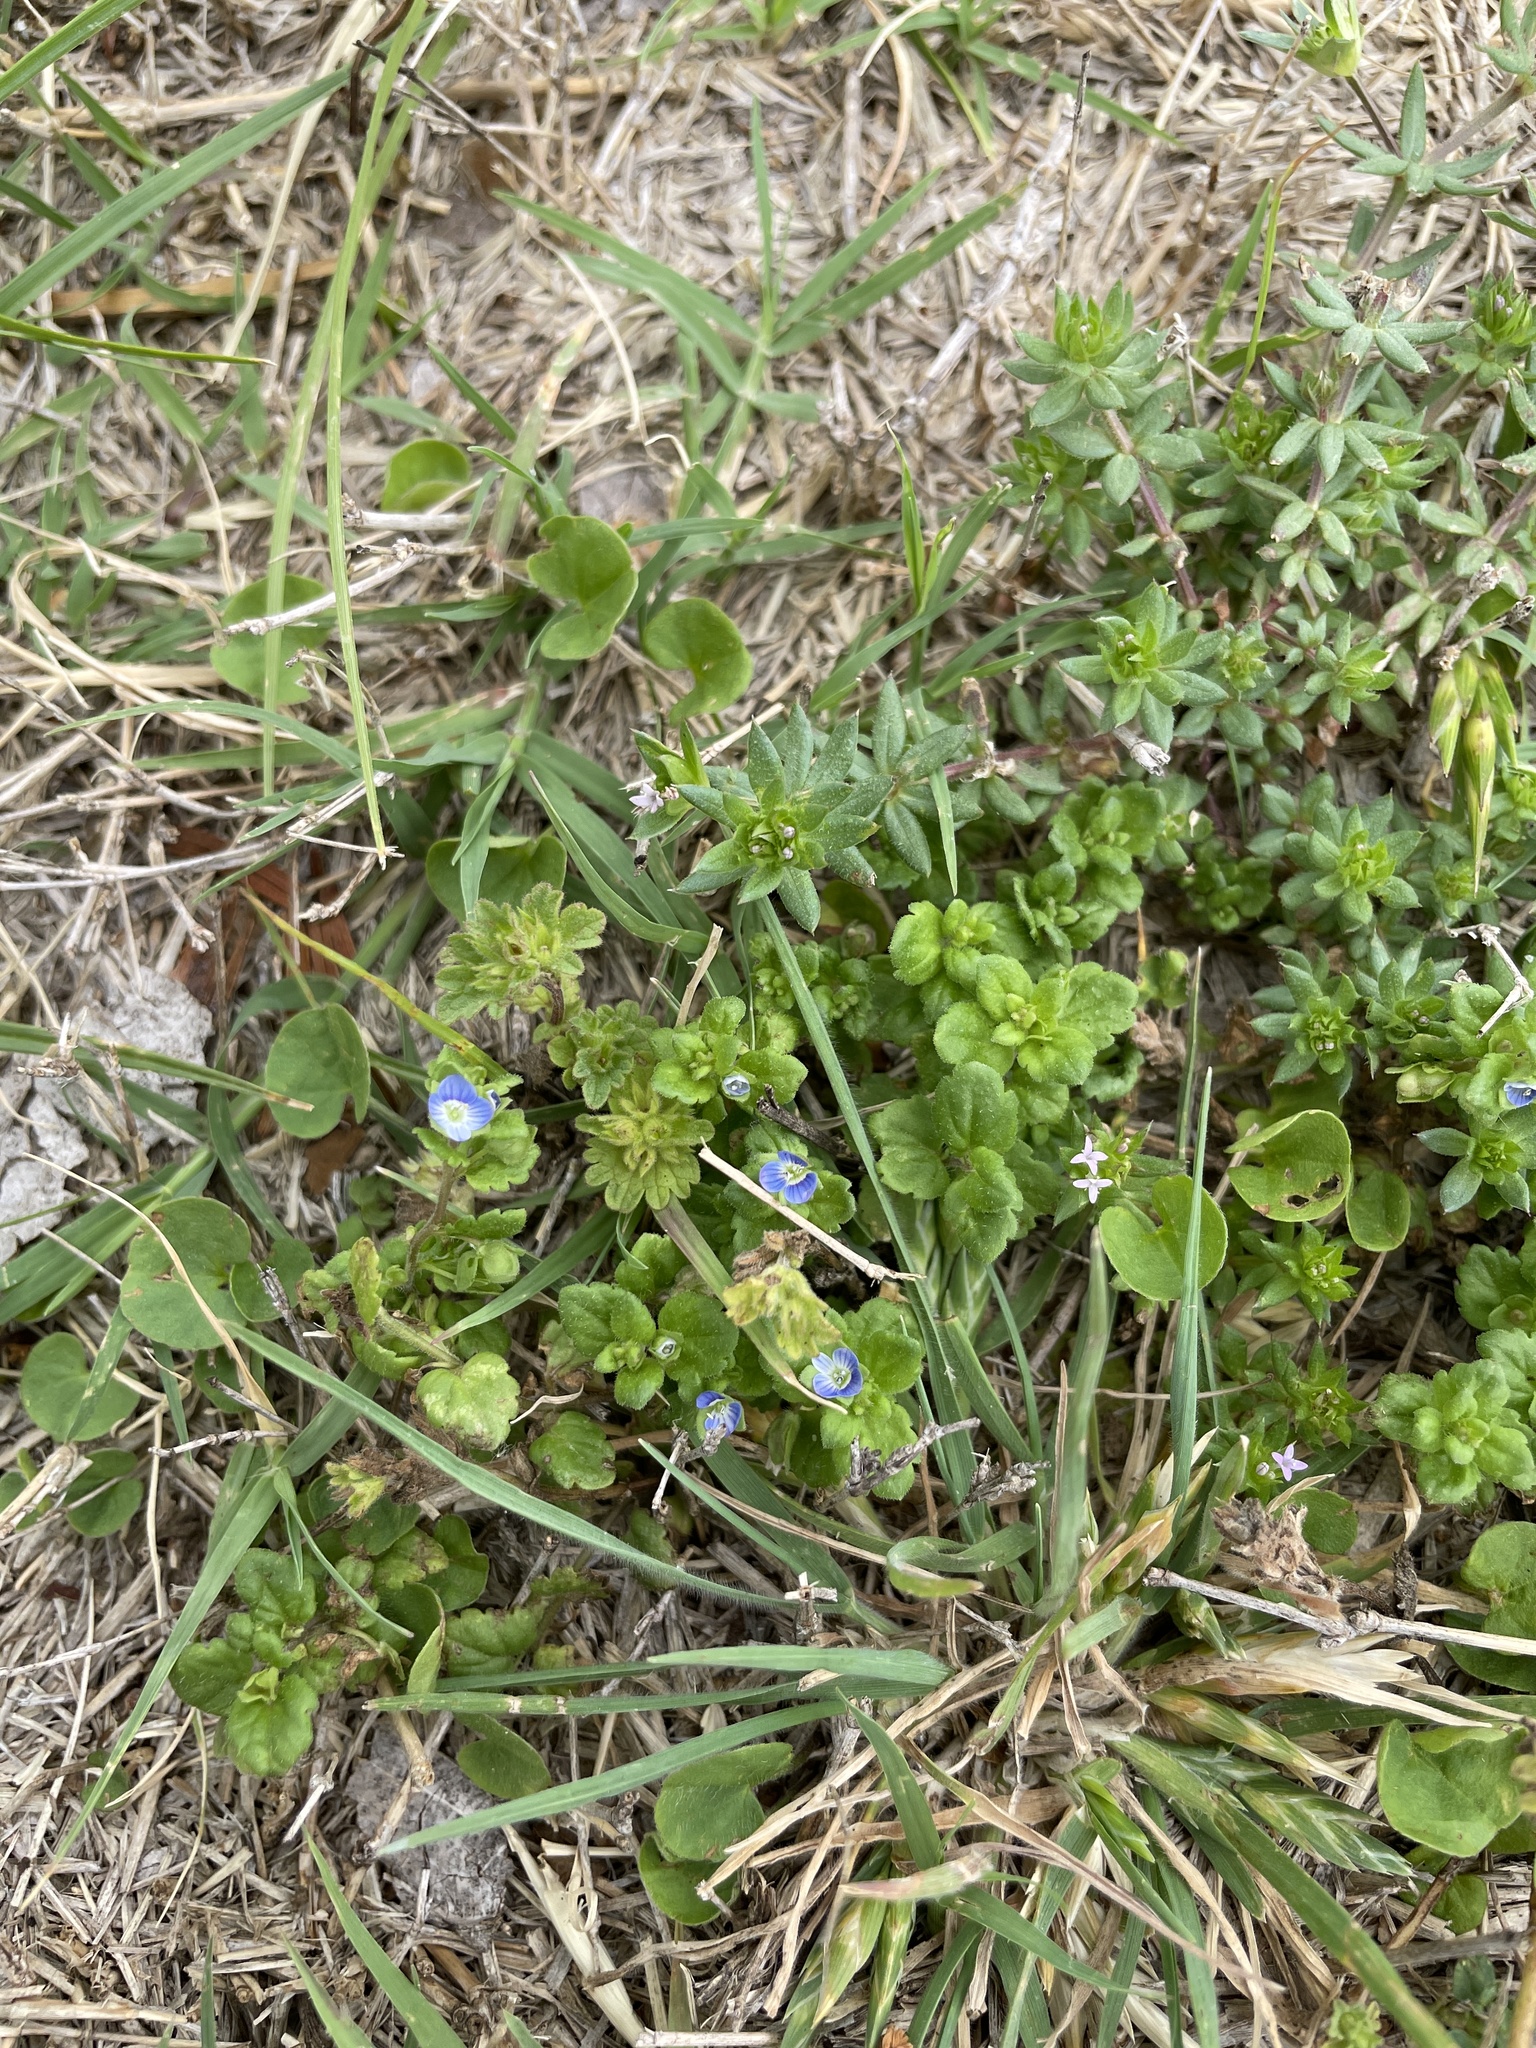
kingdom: Plantae
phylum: Tracheophyta
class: Magnoliopsida
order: Lamiales
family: Plantaginaceae
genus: Veronica
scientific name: Veronica polita
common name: Grey field-speedwell
